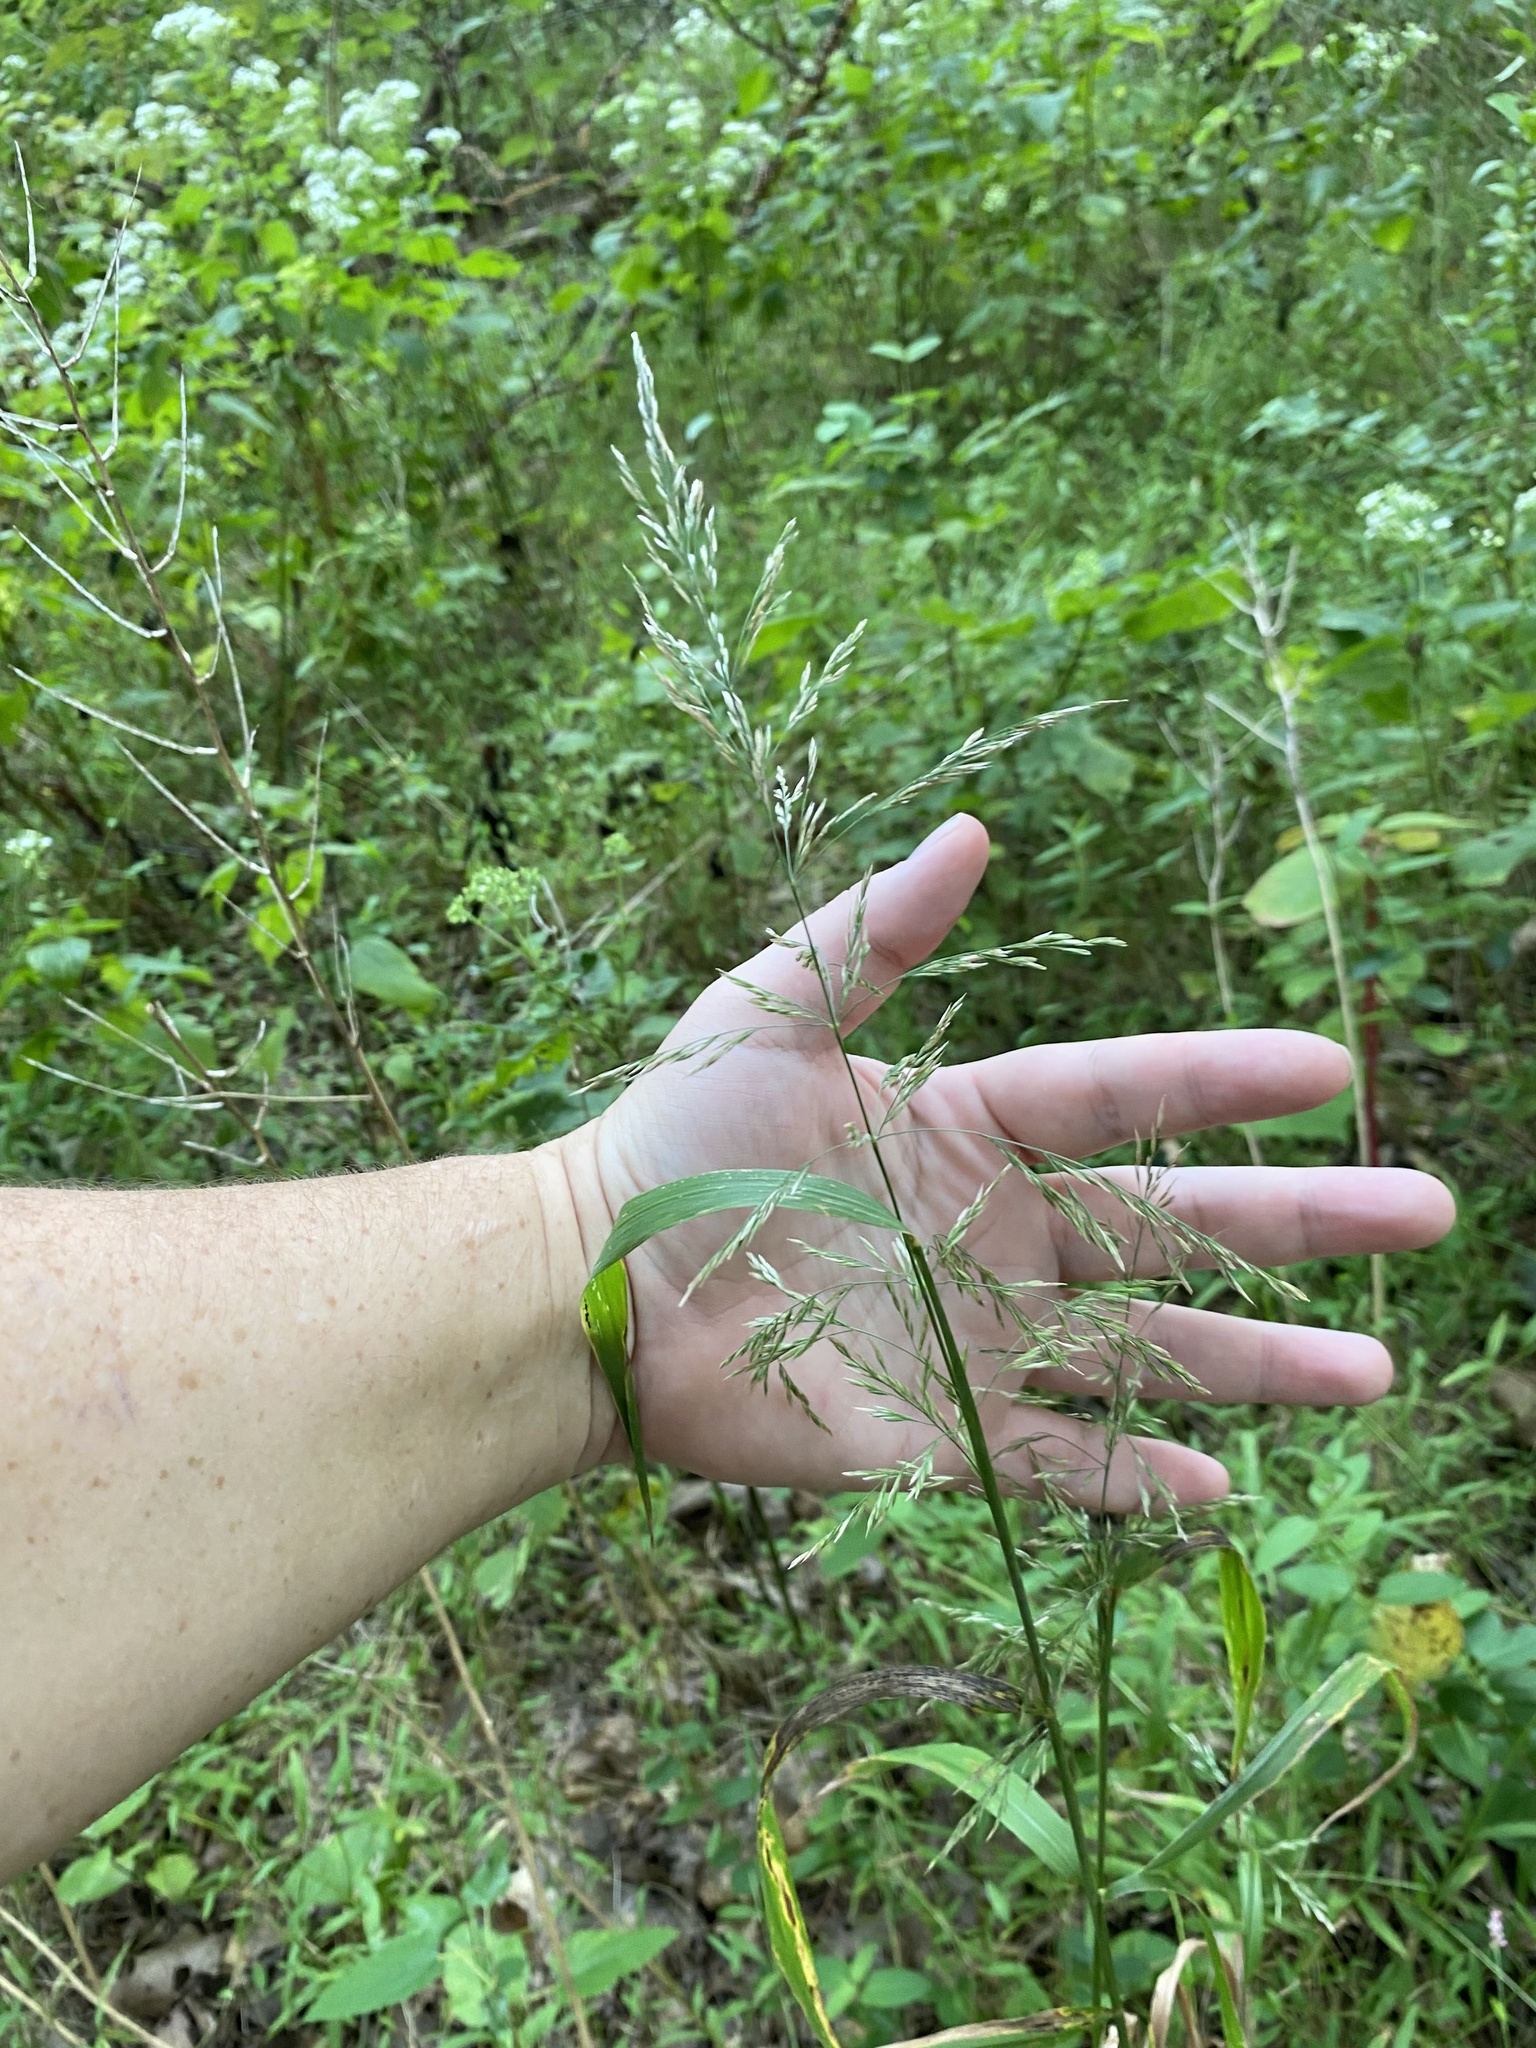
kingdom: Plantae
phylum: Tracheophyta
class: Liliopsida
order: Poales
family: Poaceae
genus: Cinna
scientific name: Cinna arundinacea
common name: Stout woodreed
